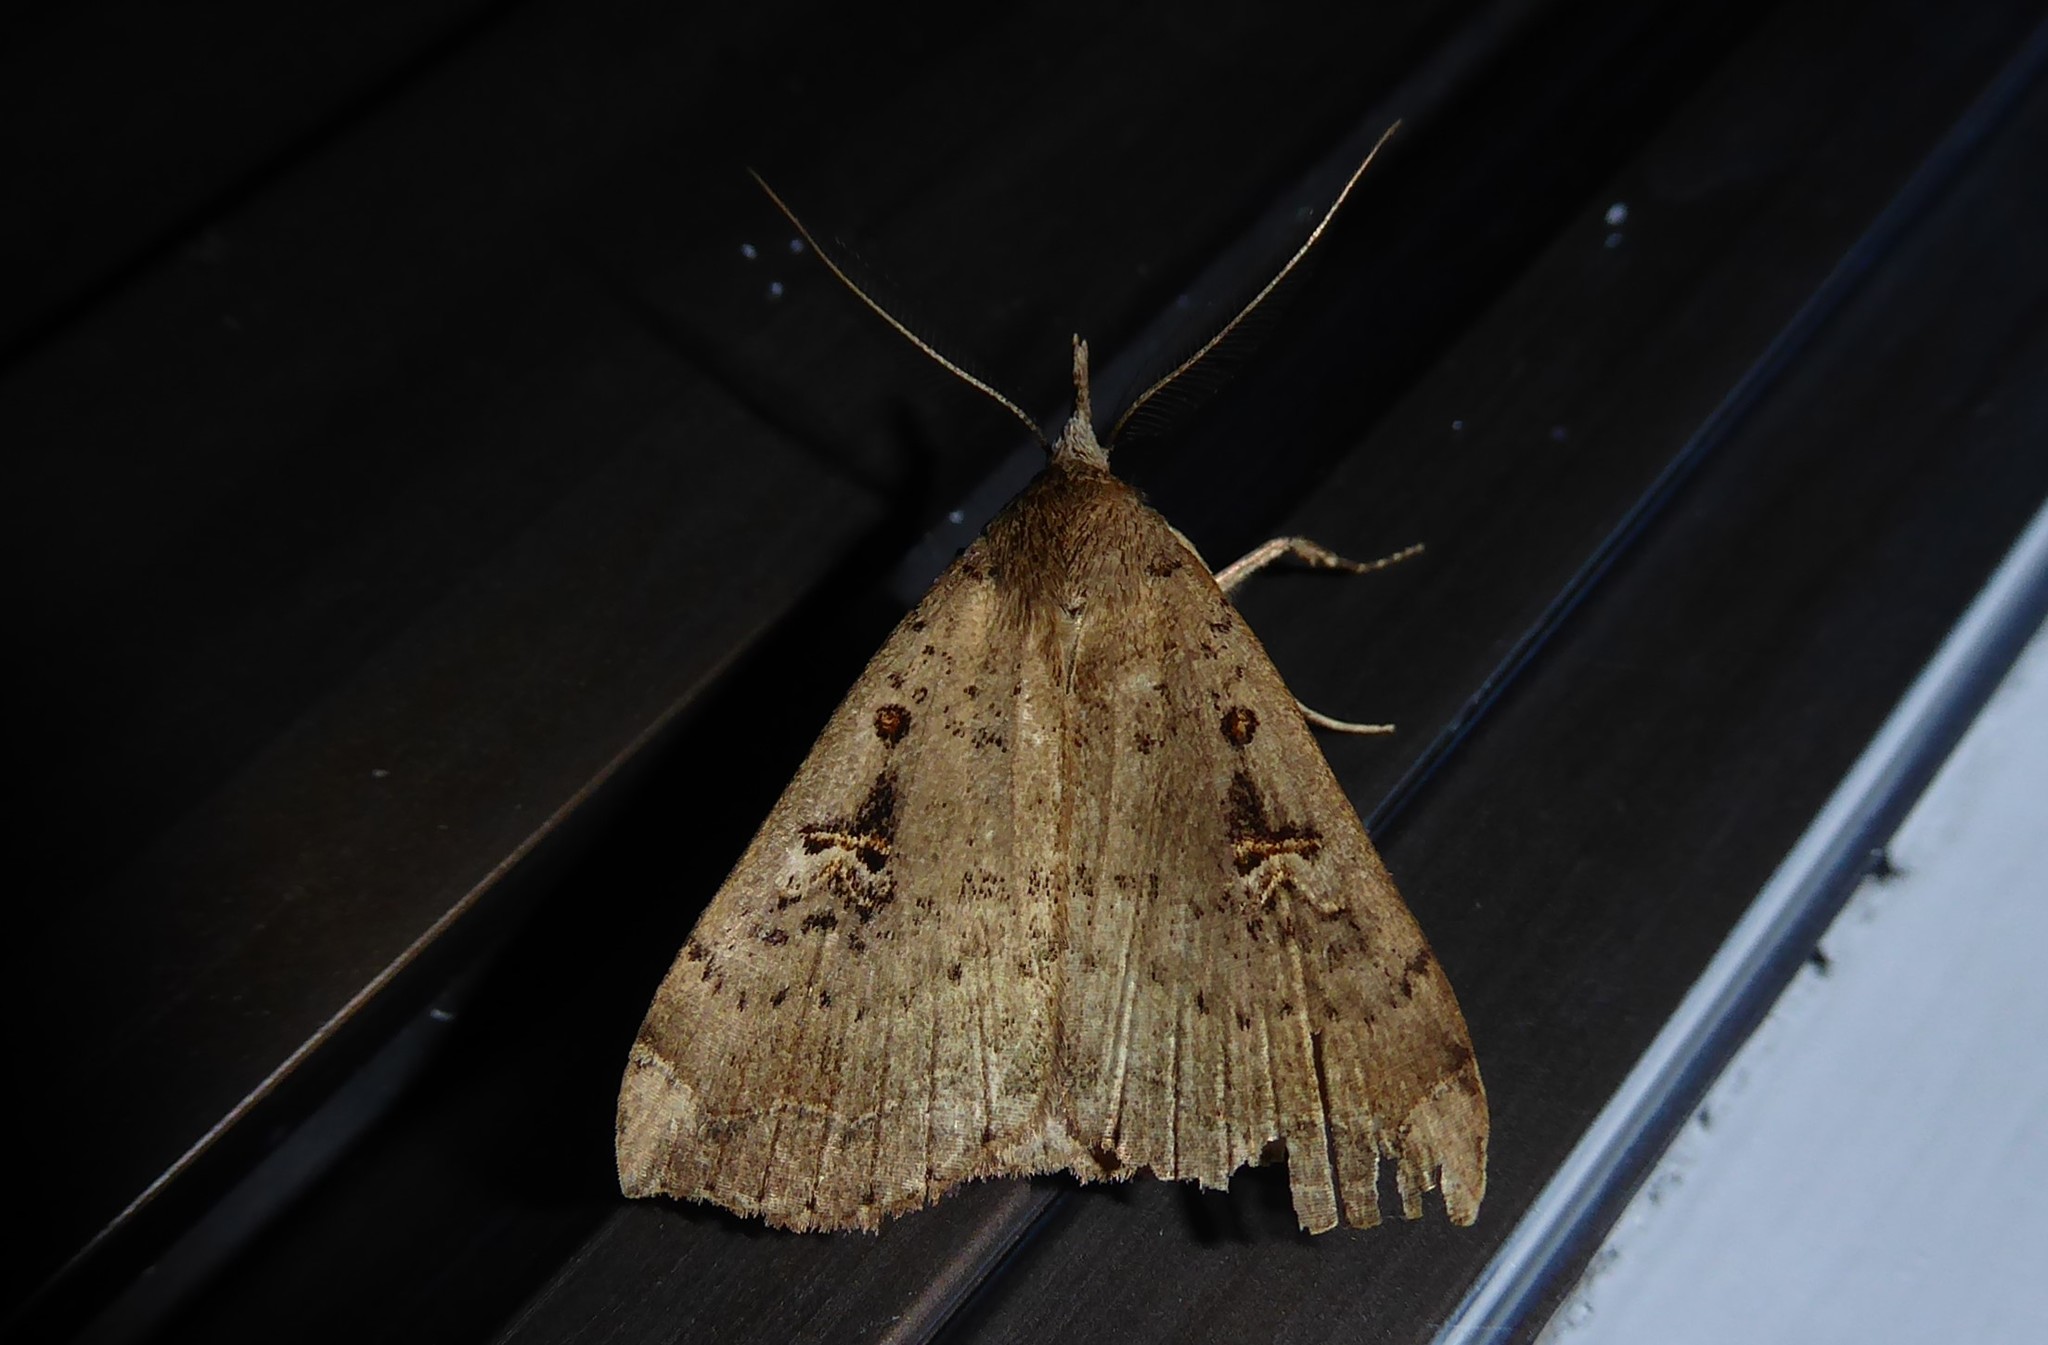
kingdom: Animalia
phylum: Arthropoda
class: Insecta
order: Lepidoptera
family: Erebidae
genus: Rhapsa
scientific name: Rhapsa scotosialis
